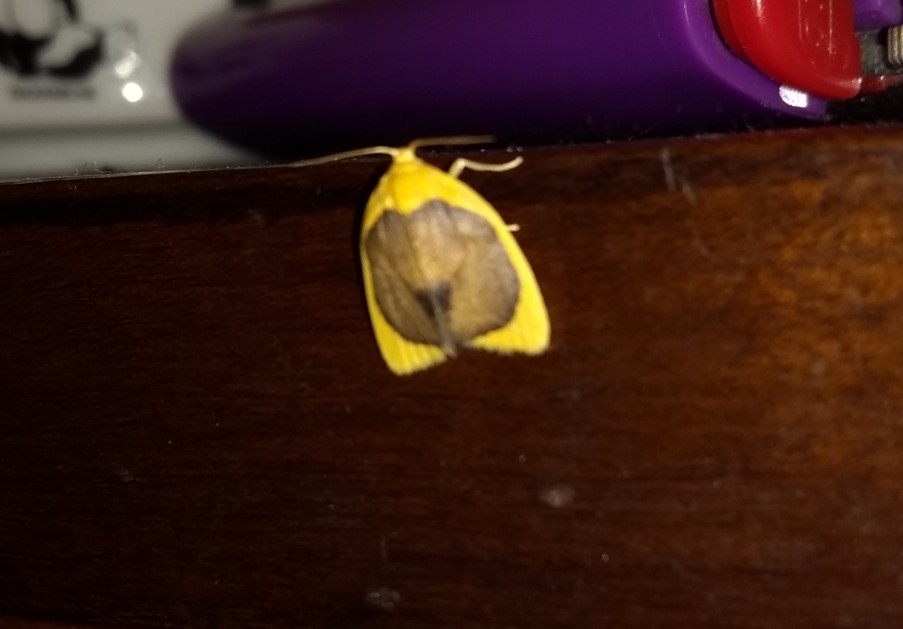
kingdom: Animalia
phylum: Arthropoda
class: Insecta
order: Lepidoptera
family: Erebidae
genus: Pronola
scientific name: Pronola magniplaga
